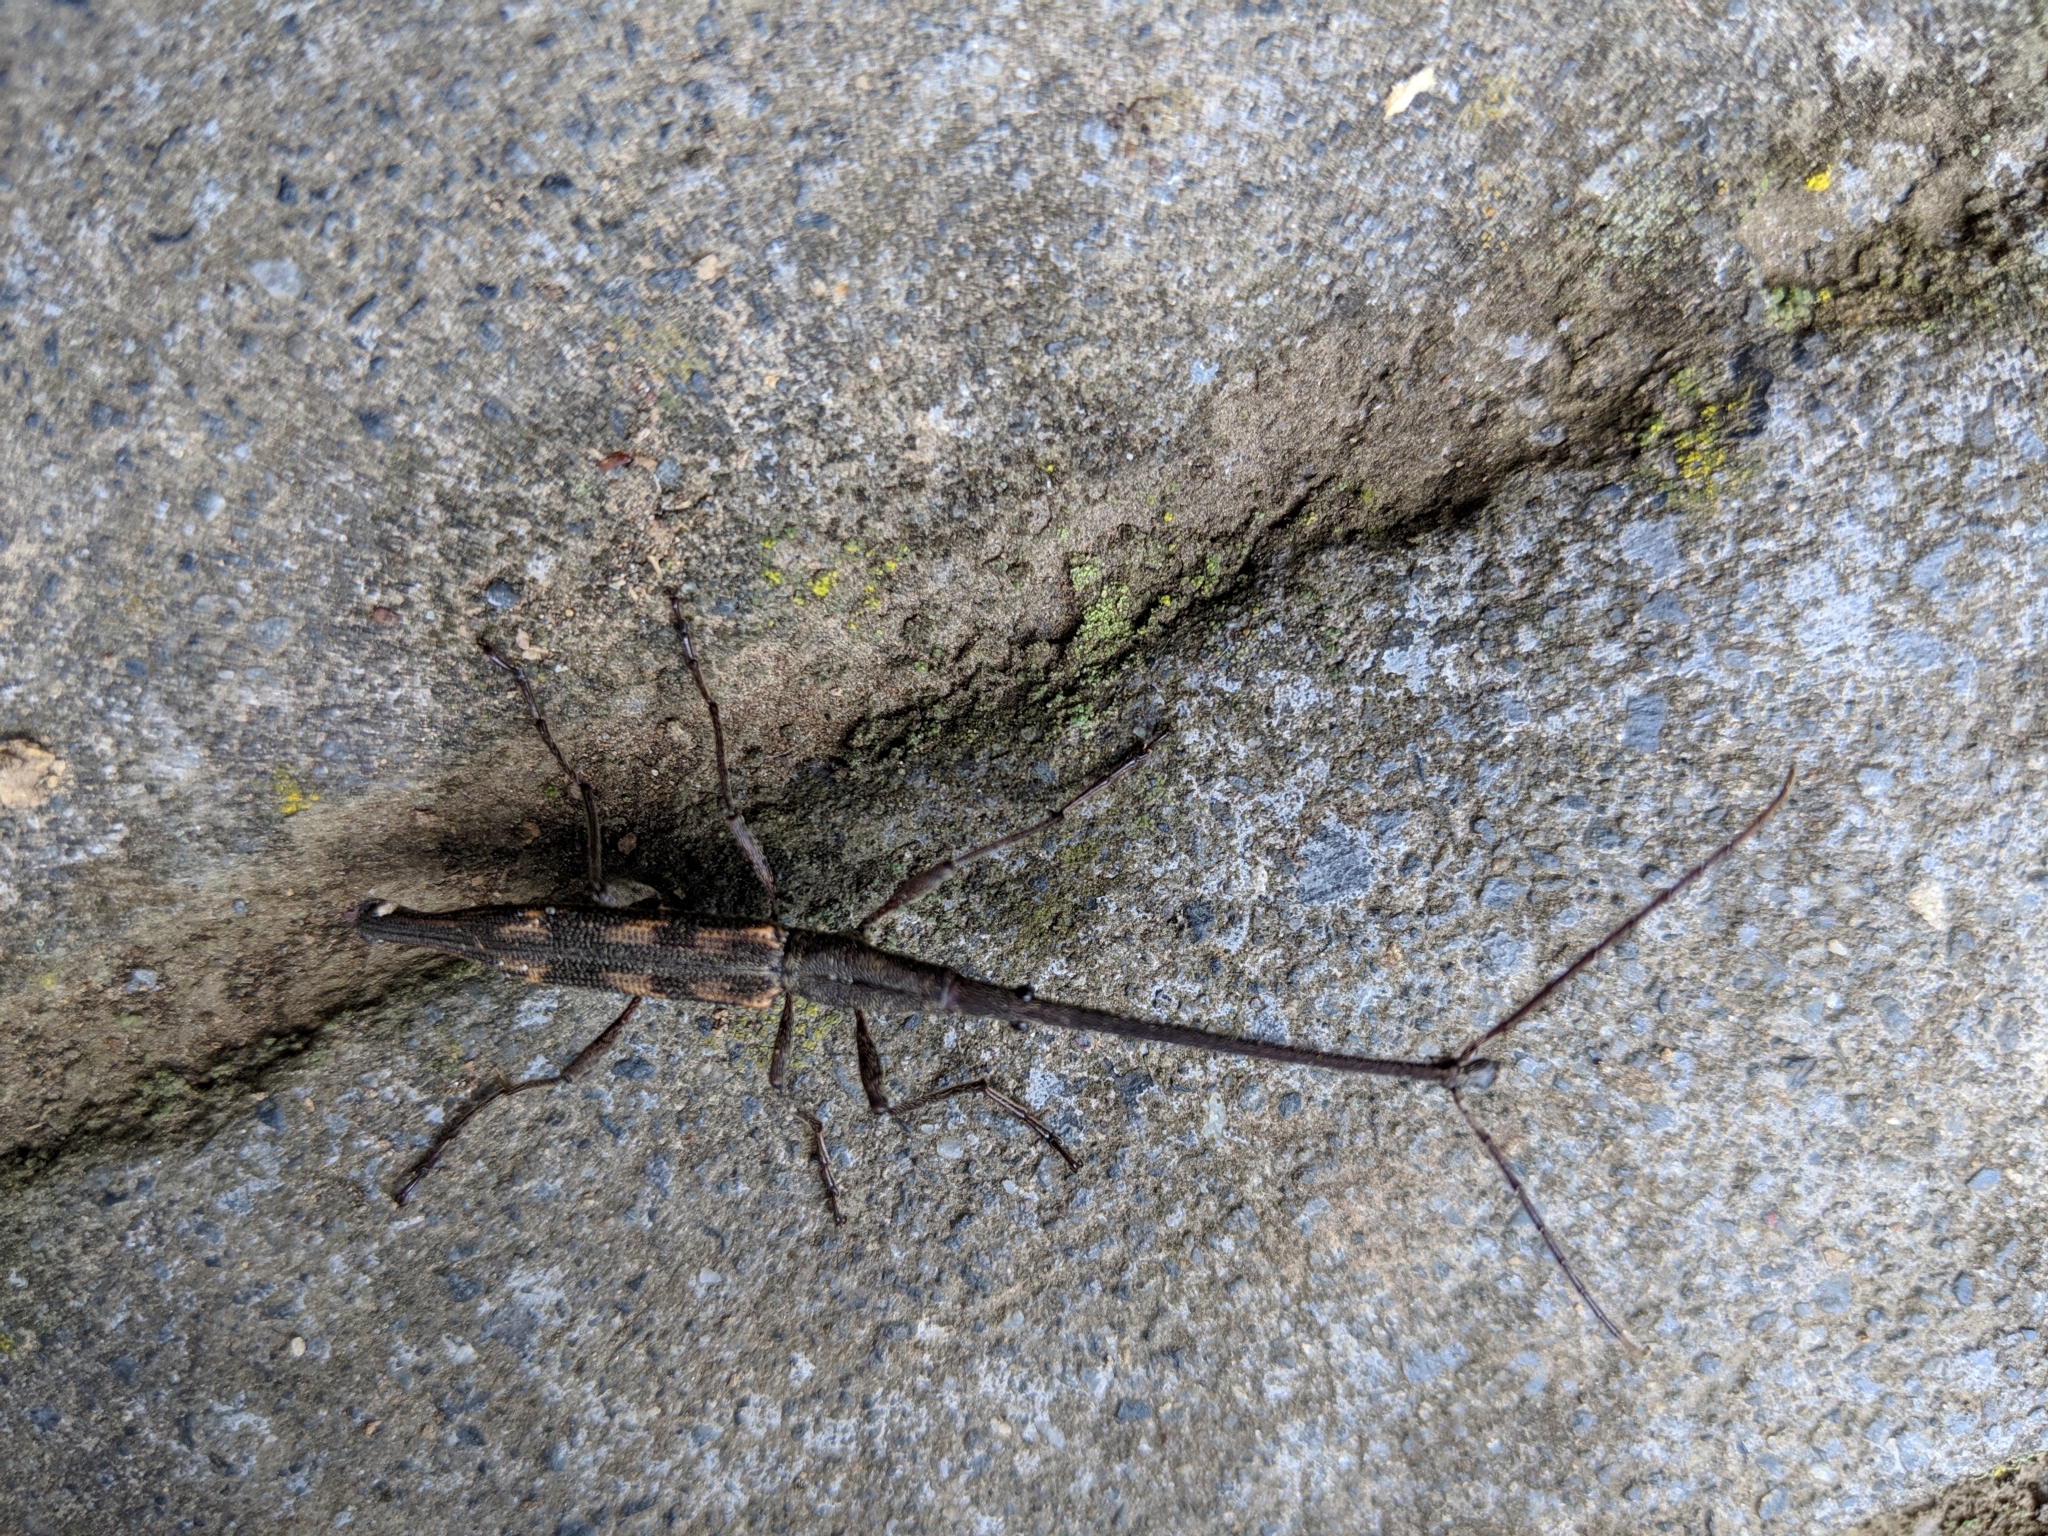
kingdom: Animalia
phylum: Arthropoda
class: Insecta
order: Coleoptera
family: Brentidae
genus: Lasiorhynchus
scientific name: Lasiorhynchus barbicornis
